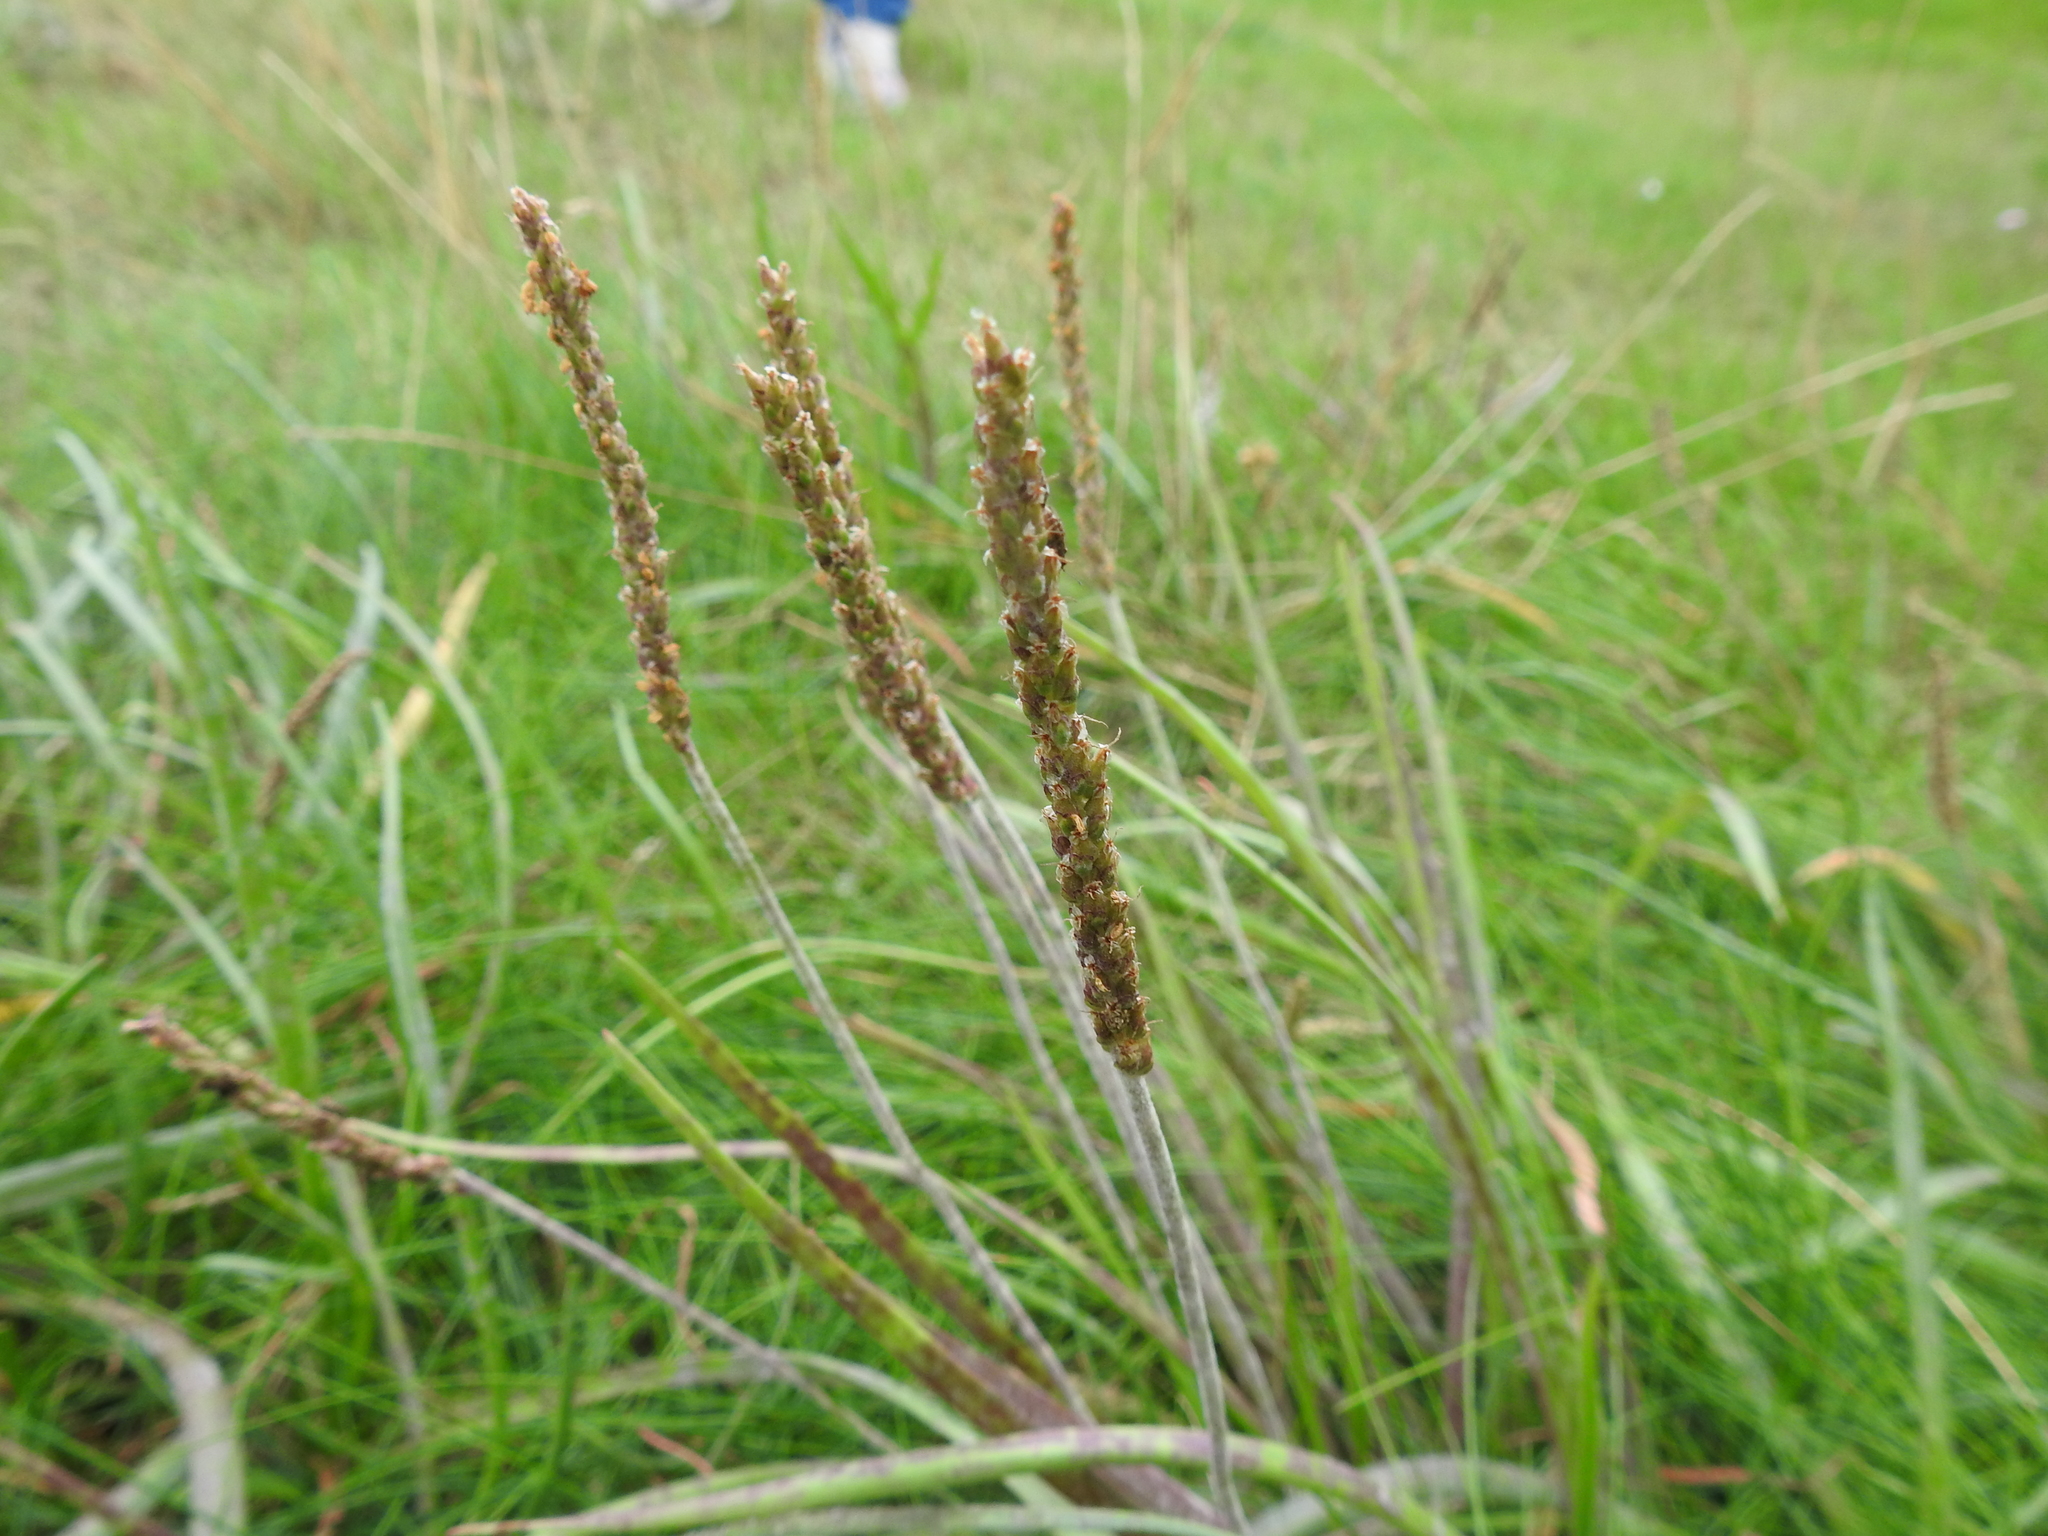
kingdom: Plantae
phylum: Tracheophyta
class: Magnoliopsida
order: Lamiales
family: Plantaginaceae
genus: Plantago
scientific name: Plantago maritima
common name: Sea plantain
